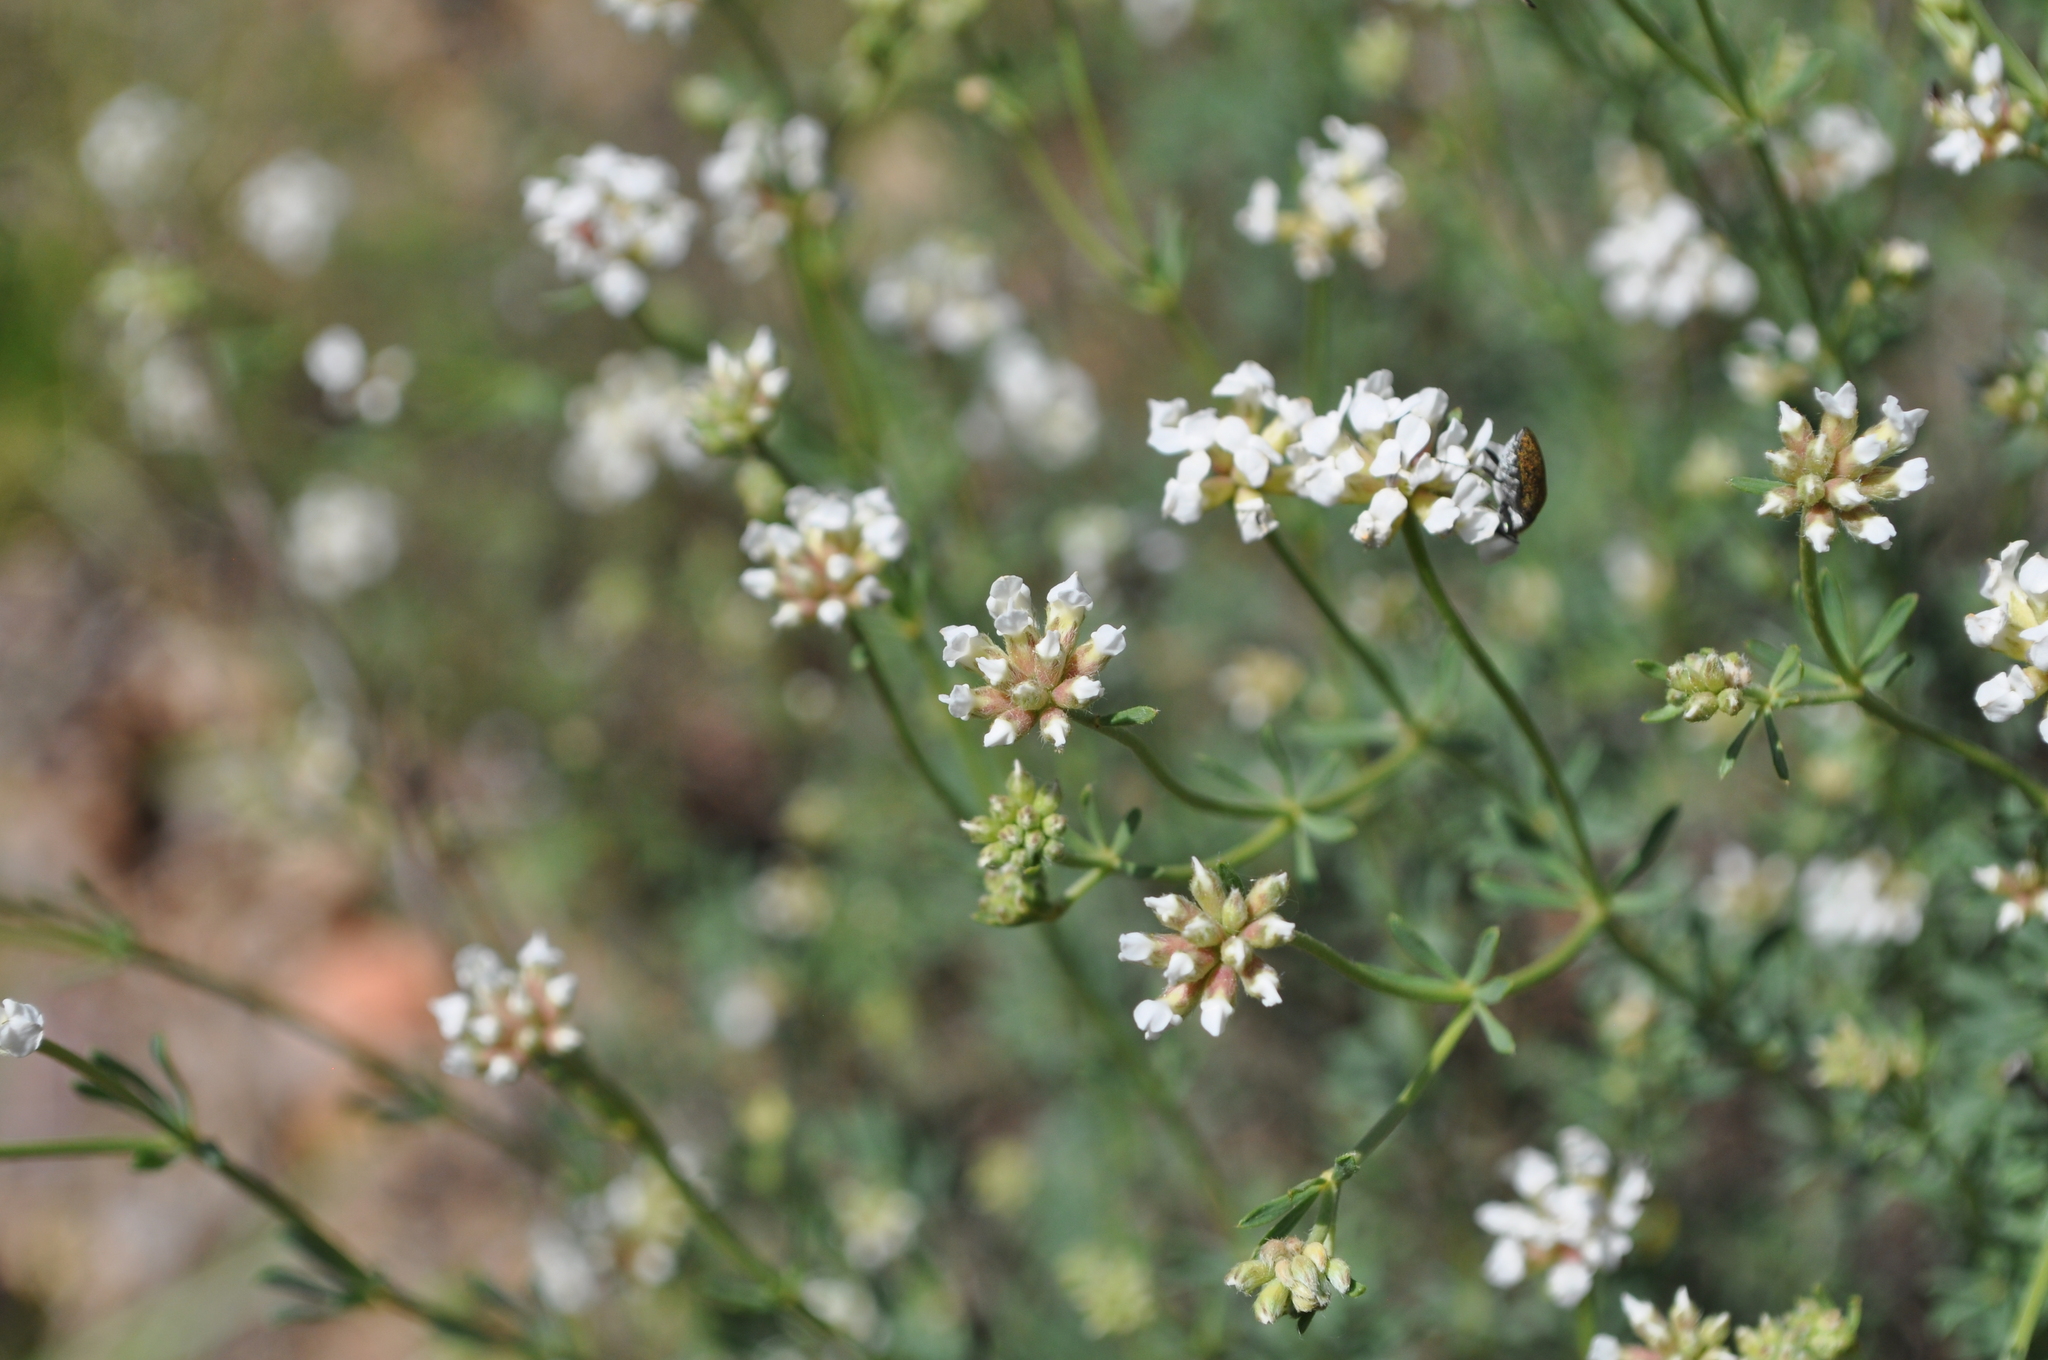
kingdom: Plantae
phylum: Tracheophyta
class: Magnoliopsida
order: Fabales
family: Fabaceae
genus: Lotus
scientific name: Lotus dorycnium
